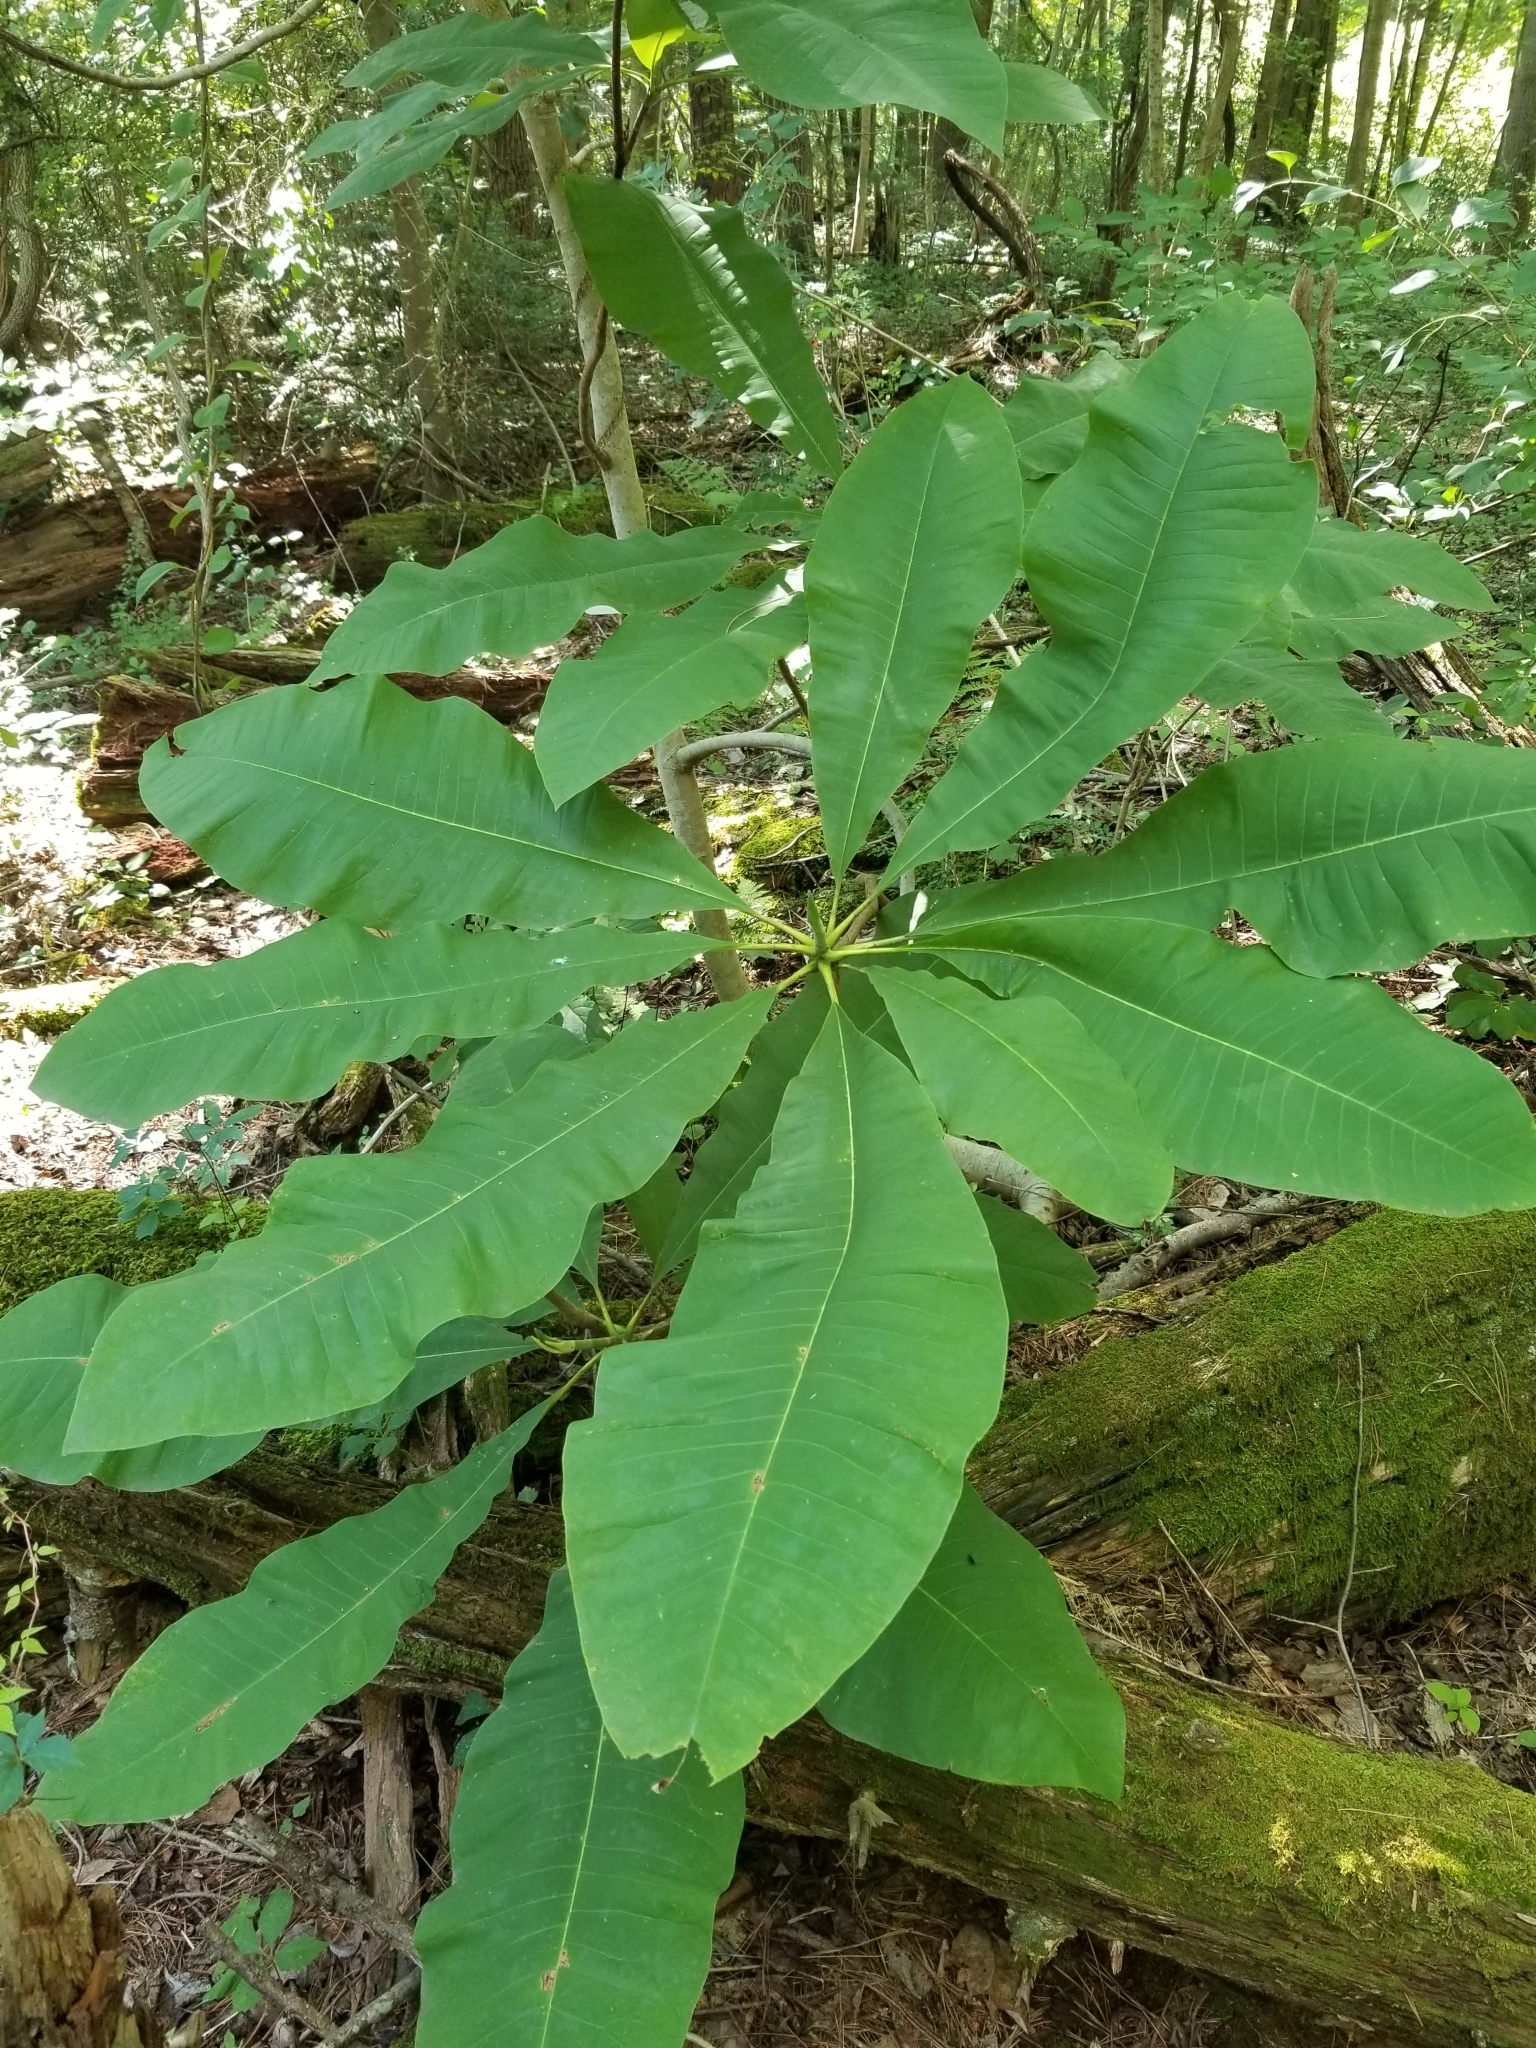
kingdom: Plantae
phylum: Tracheophyta
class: Magnoliopsida
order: Magnoliales
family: Magnoliaceae
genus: Magnolia
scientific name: Magnolia tripetala
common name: Umbrella magnolia
